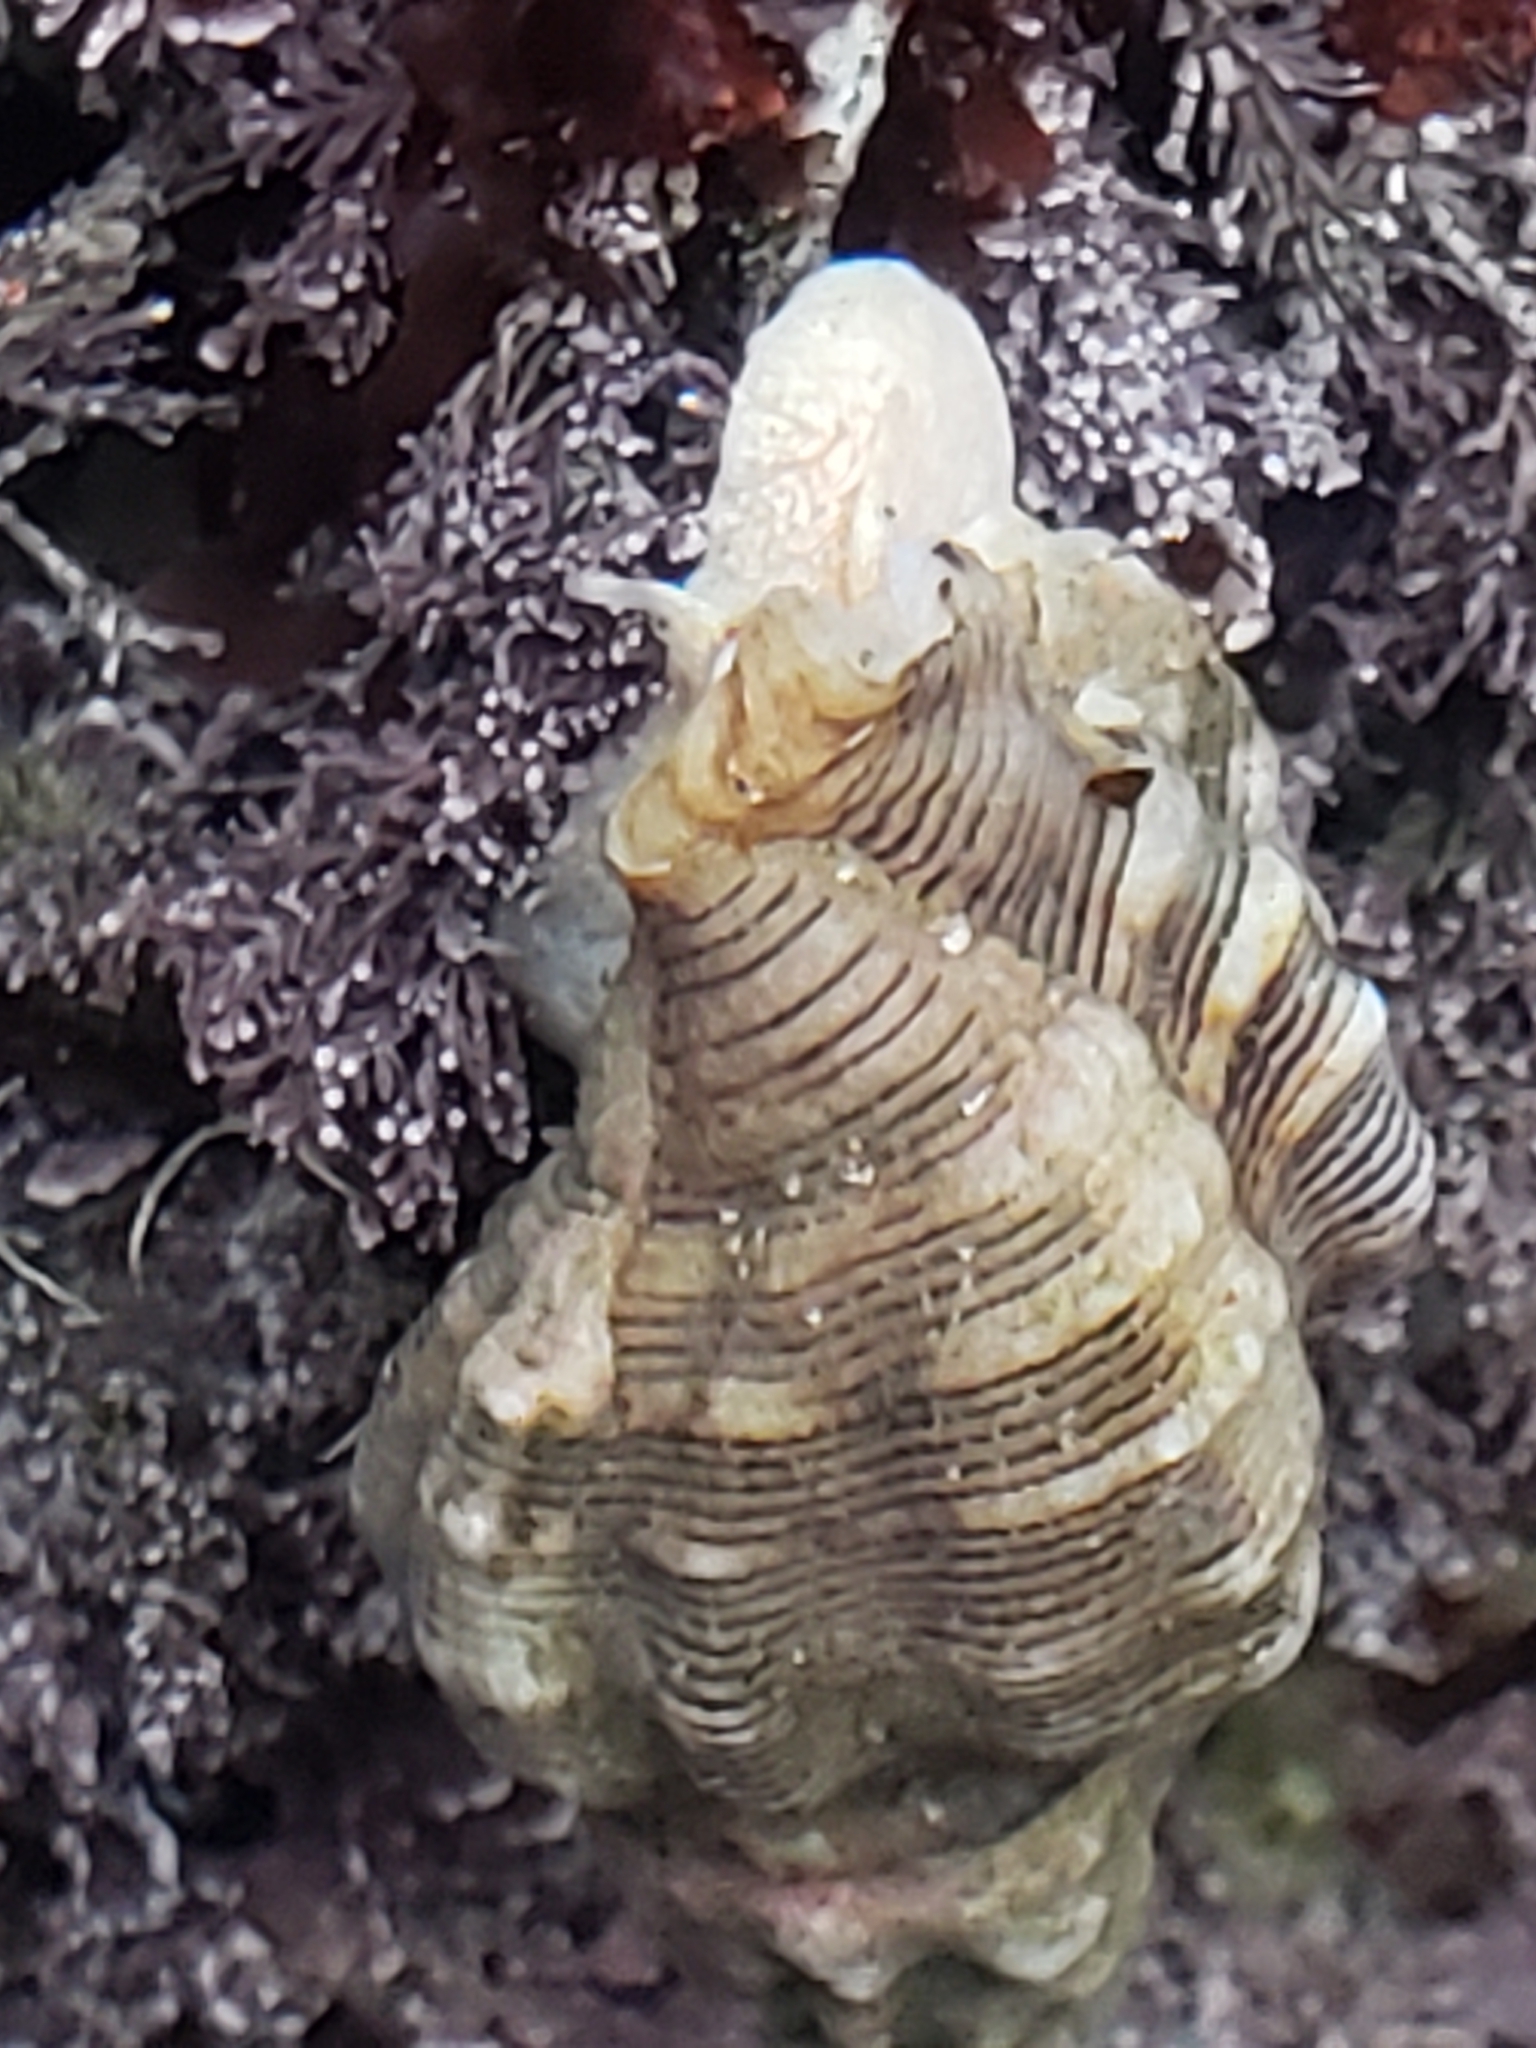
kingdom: Animalia
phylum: Mollusca
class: Gastropoda
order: Neogastropoda
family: Muricidae
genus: Roperia
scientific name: Roperia poulsoni
